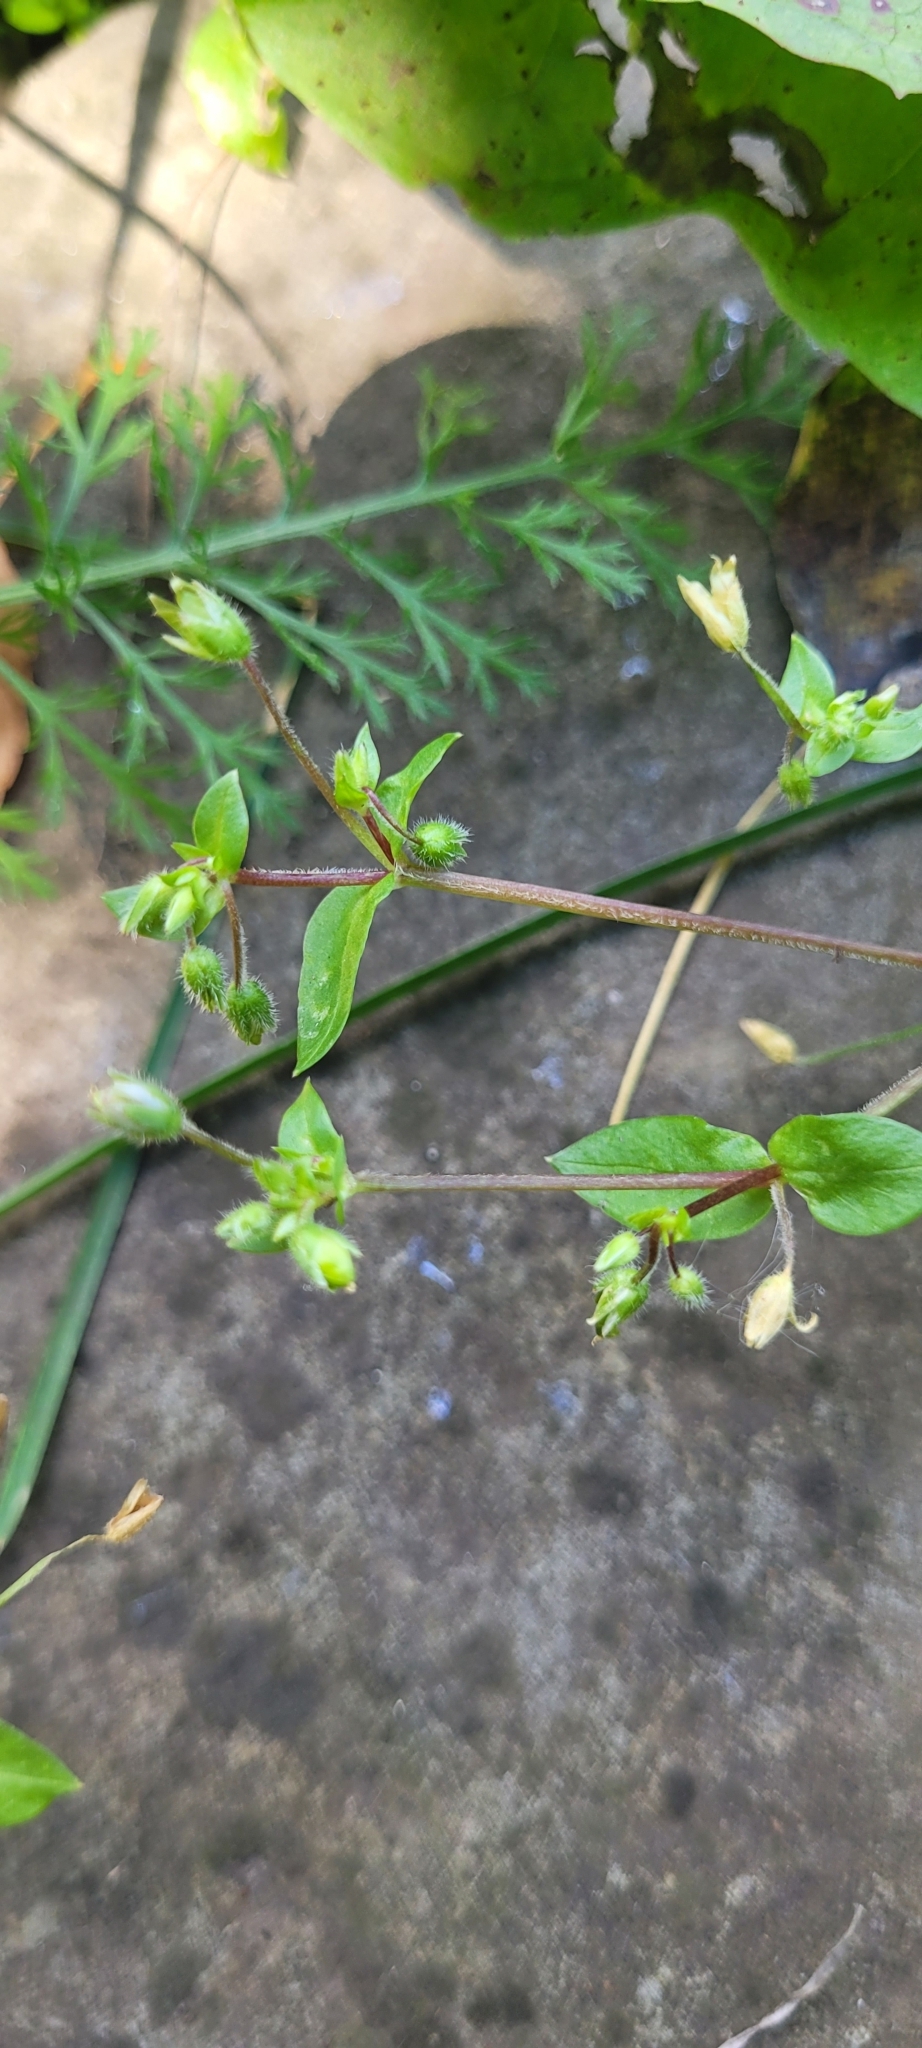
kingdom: Plantae
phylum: Tracheophyta
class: Magnoliopsida
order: Caryophyllales
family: Caryophyllaceae
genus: Stellaria
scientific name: Stellaria media
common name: Common chickweed
